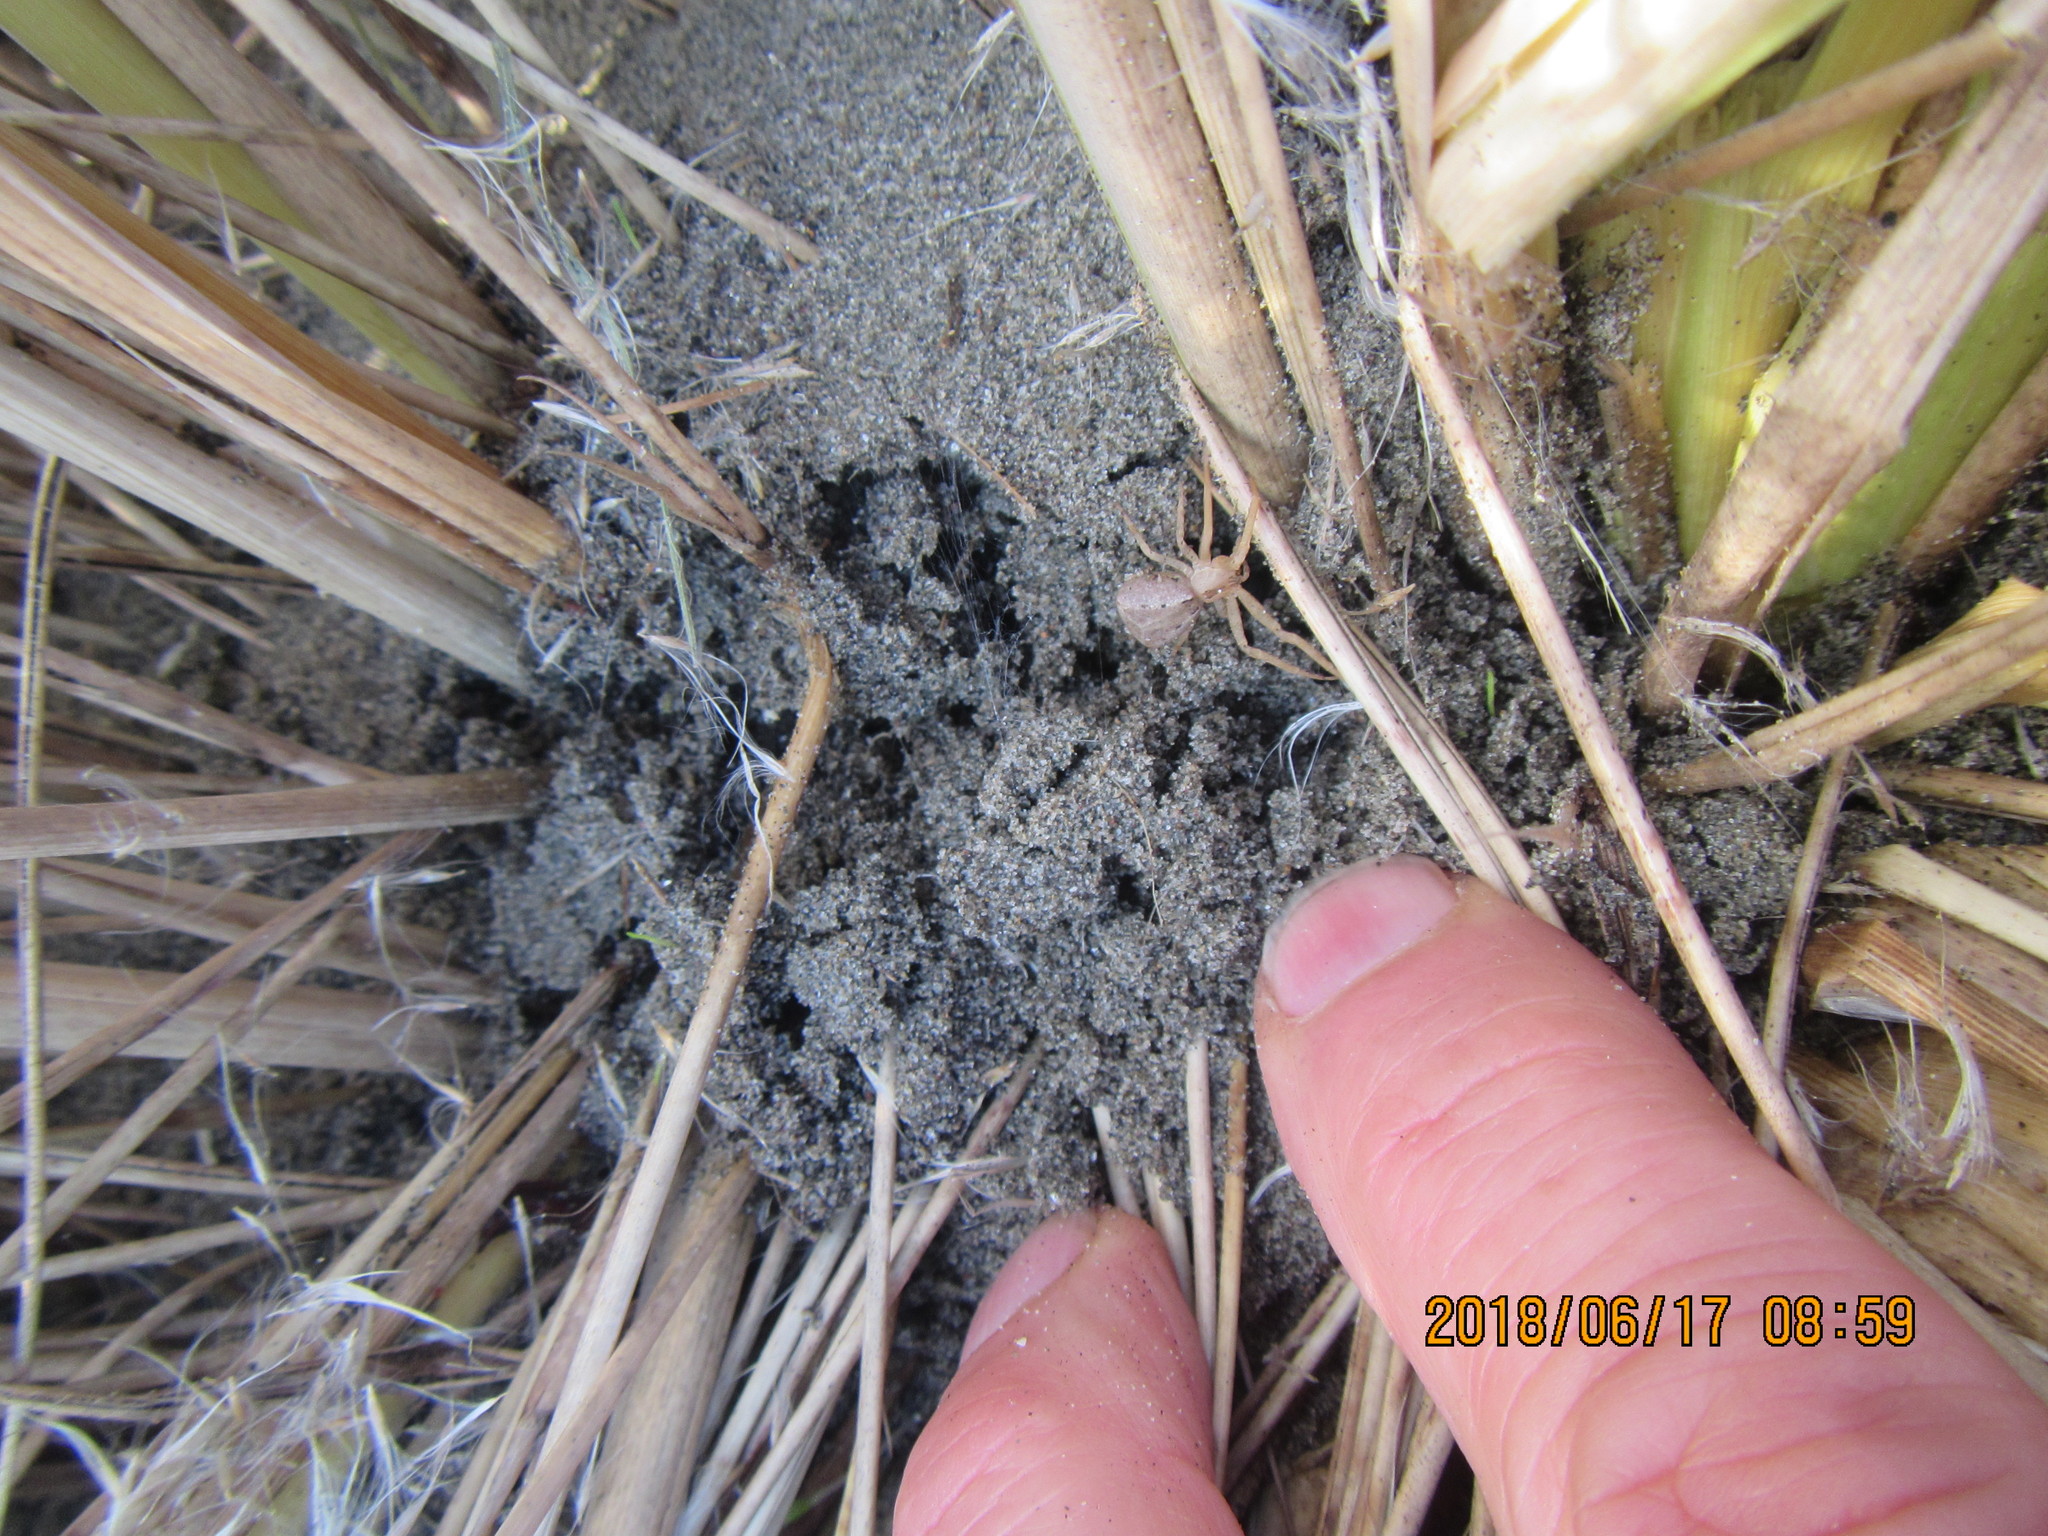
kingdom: Animalia
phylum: Arthropoda
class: Arachnida
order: Araneae
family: Thomisidae
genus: Sidymella
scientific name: Sidymella trapezia
